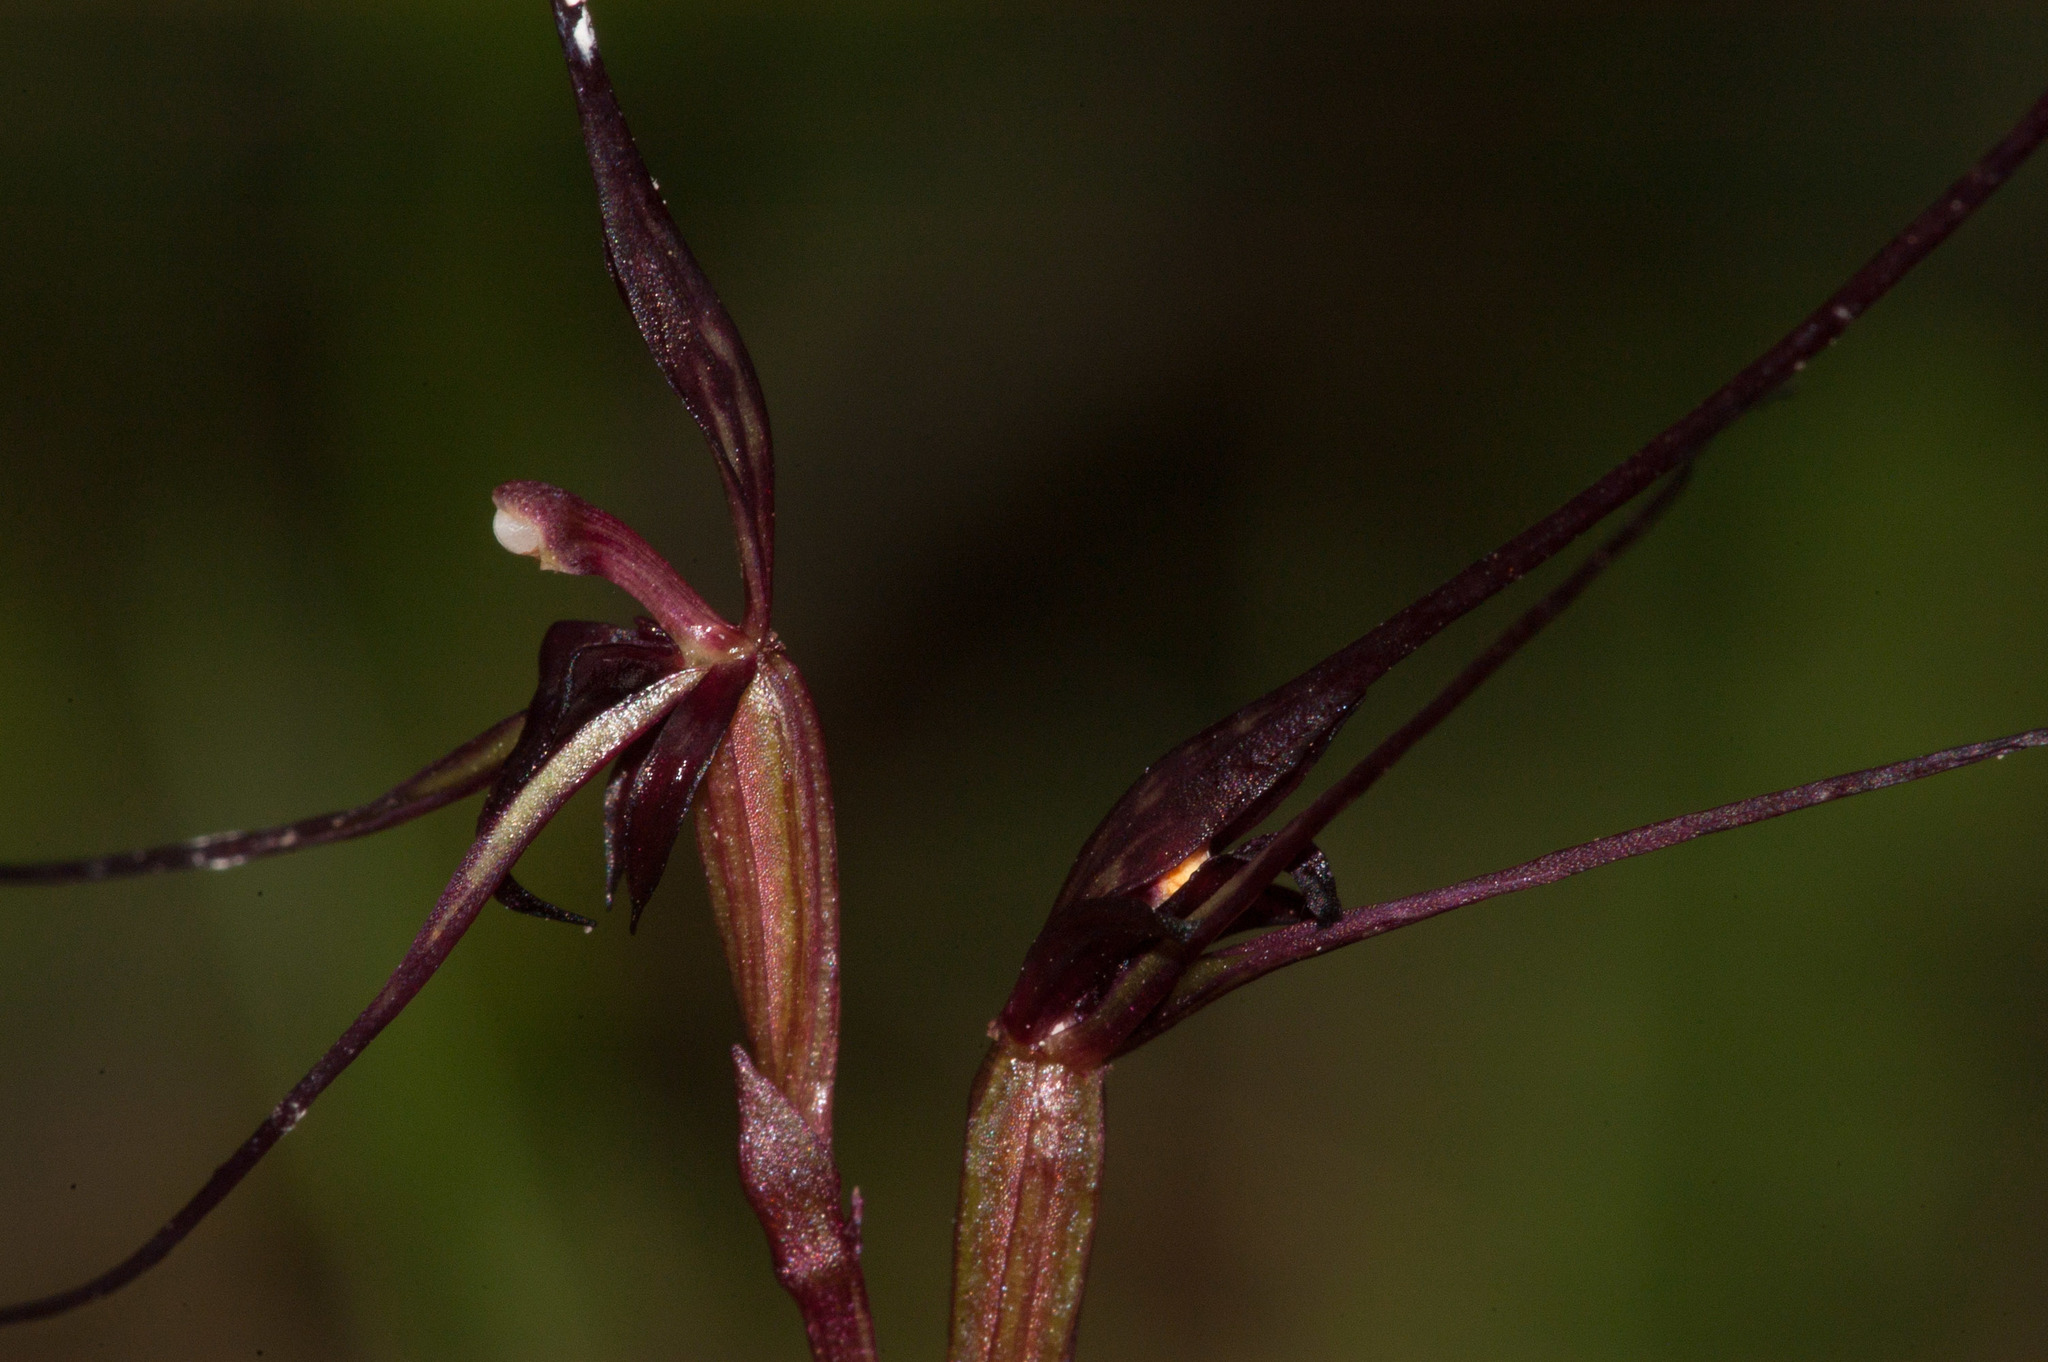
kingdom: Plantae
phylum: Tracheophyta
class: Liliopsida
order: Asparagales
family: Orchidaceae
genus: Acianthus
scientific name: Acianthus caudatus
